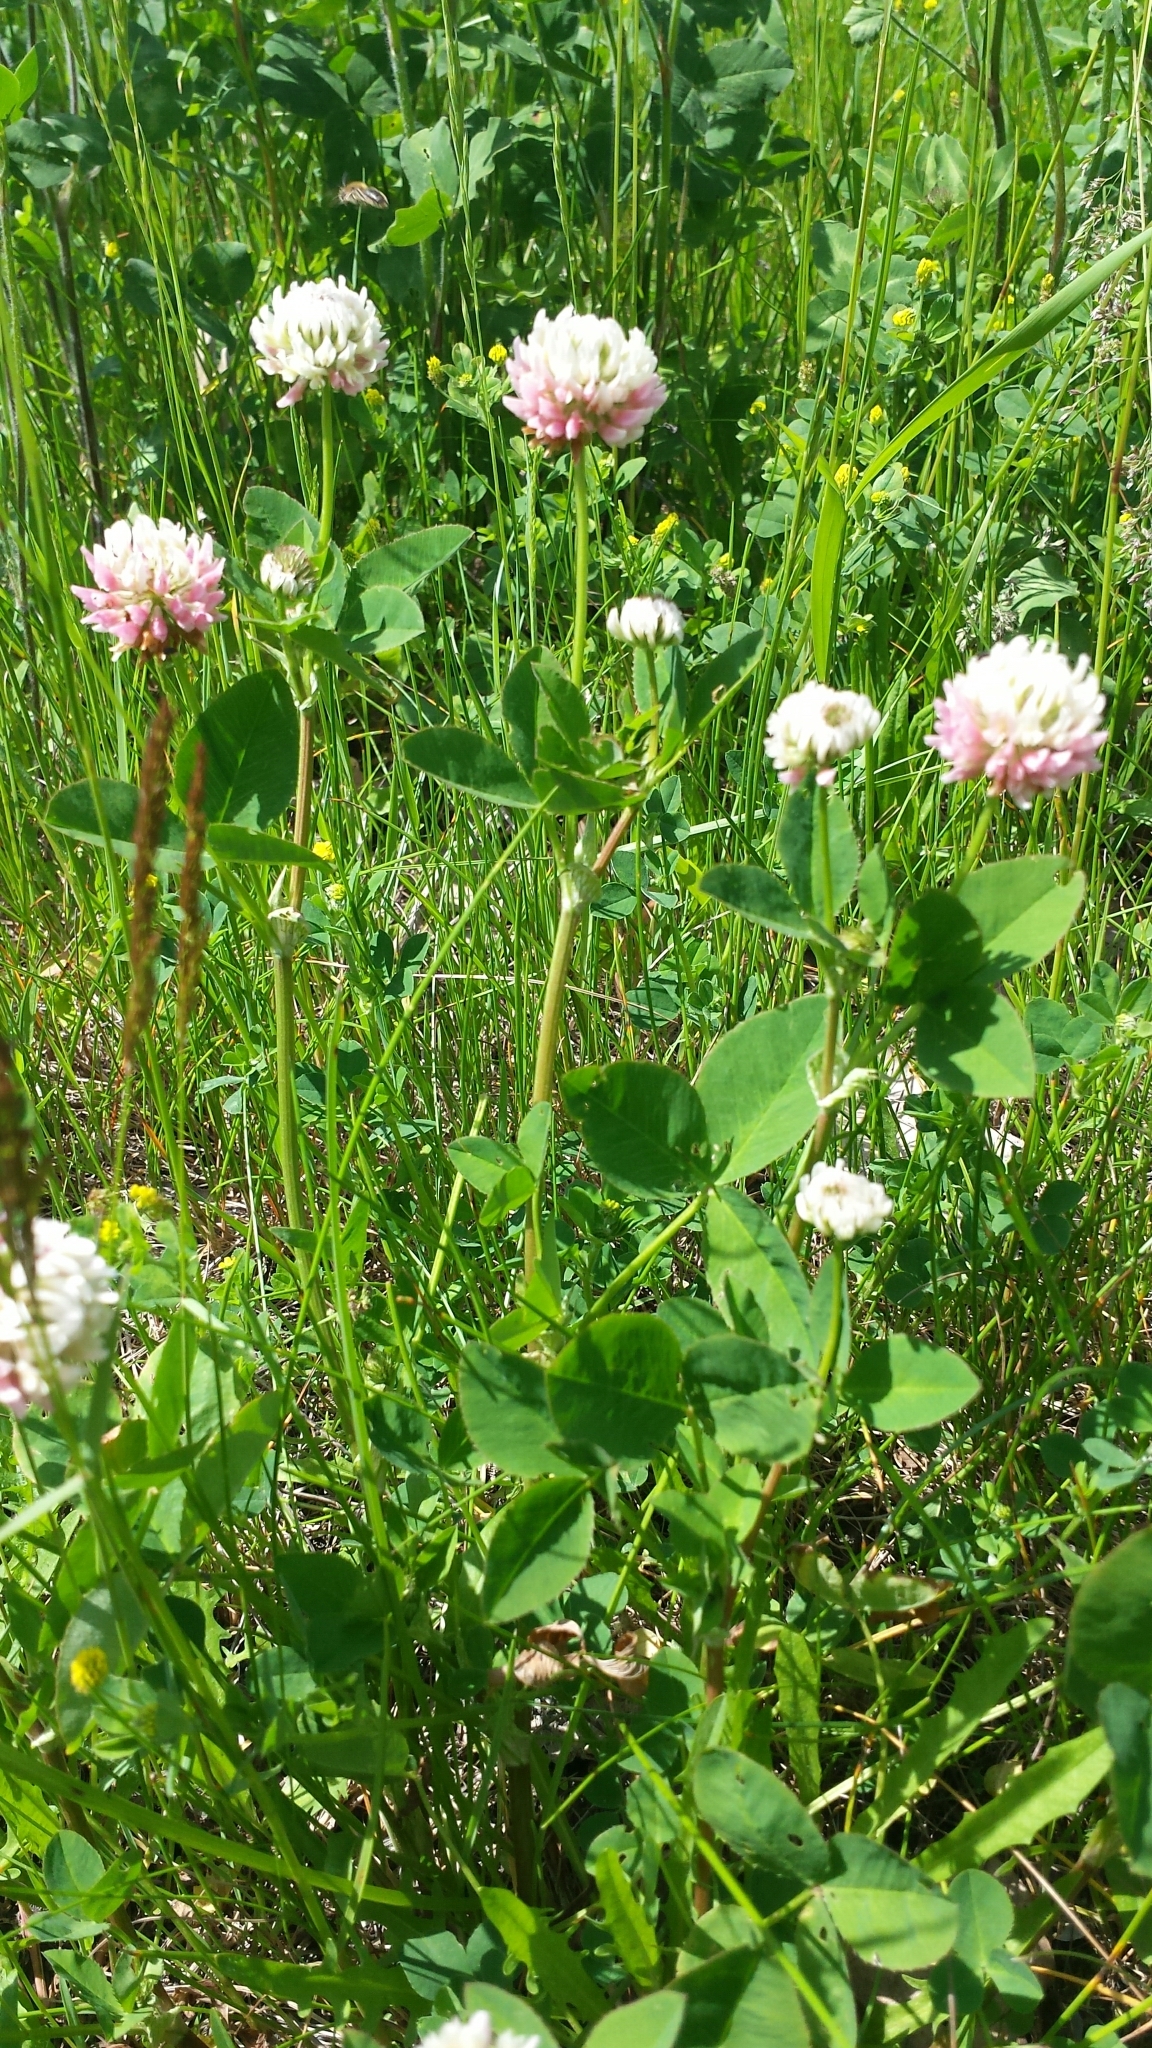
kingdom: Plantae
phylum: Tracheophyta
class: Magnoliopsida
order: Fabales
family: Fabaceae
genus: Trifolium
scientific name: Trifolium hybridum
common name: Alsike clover
